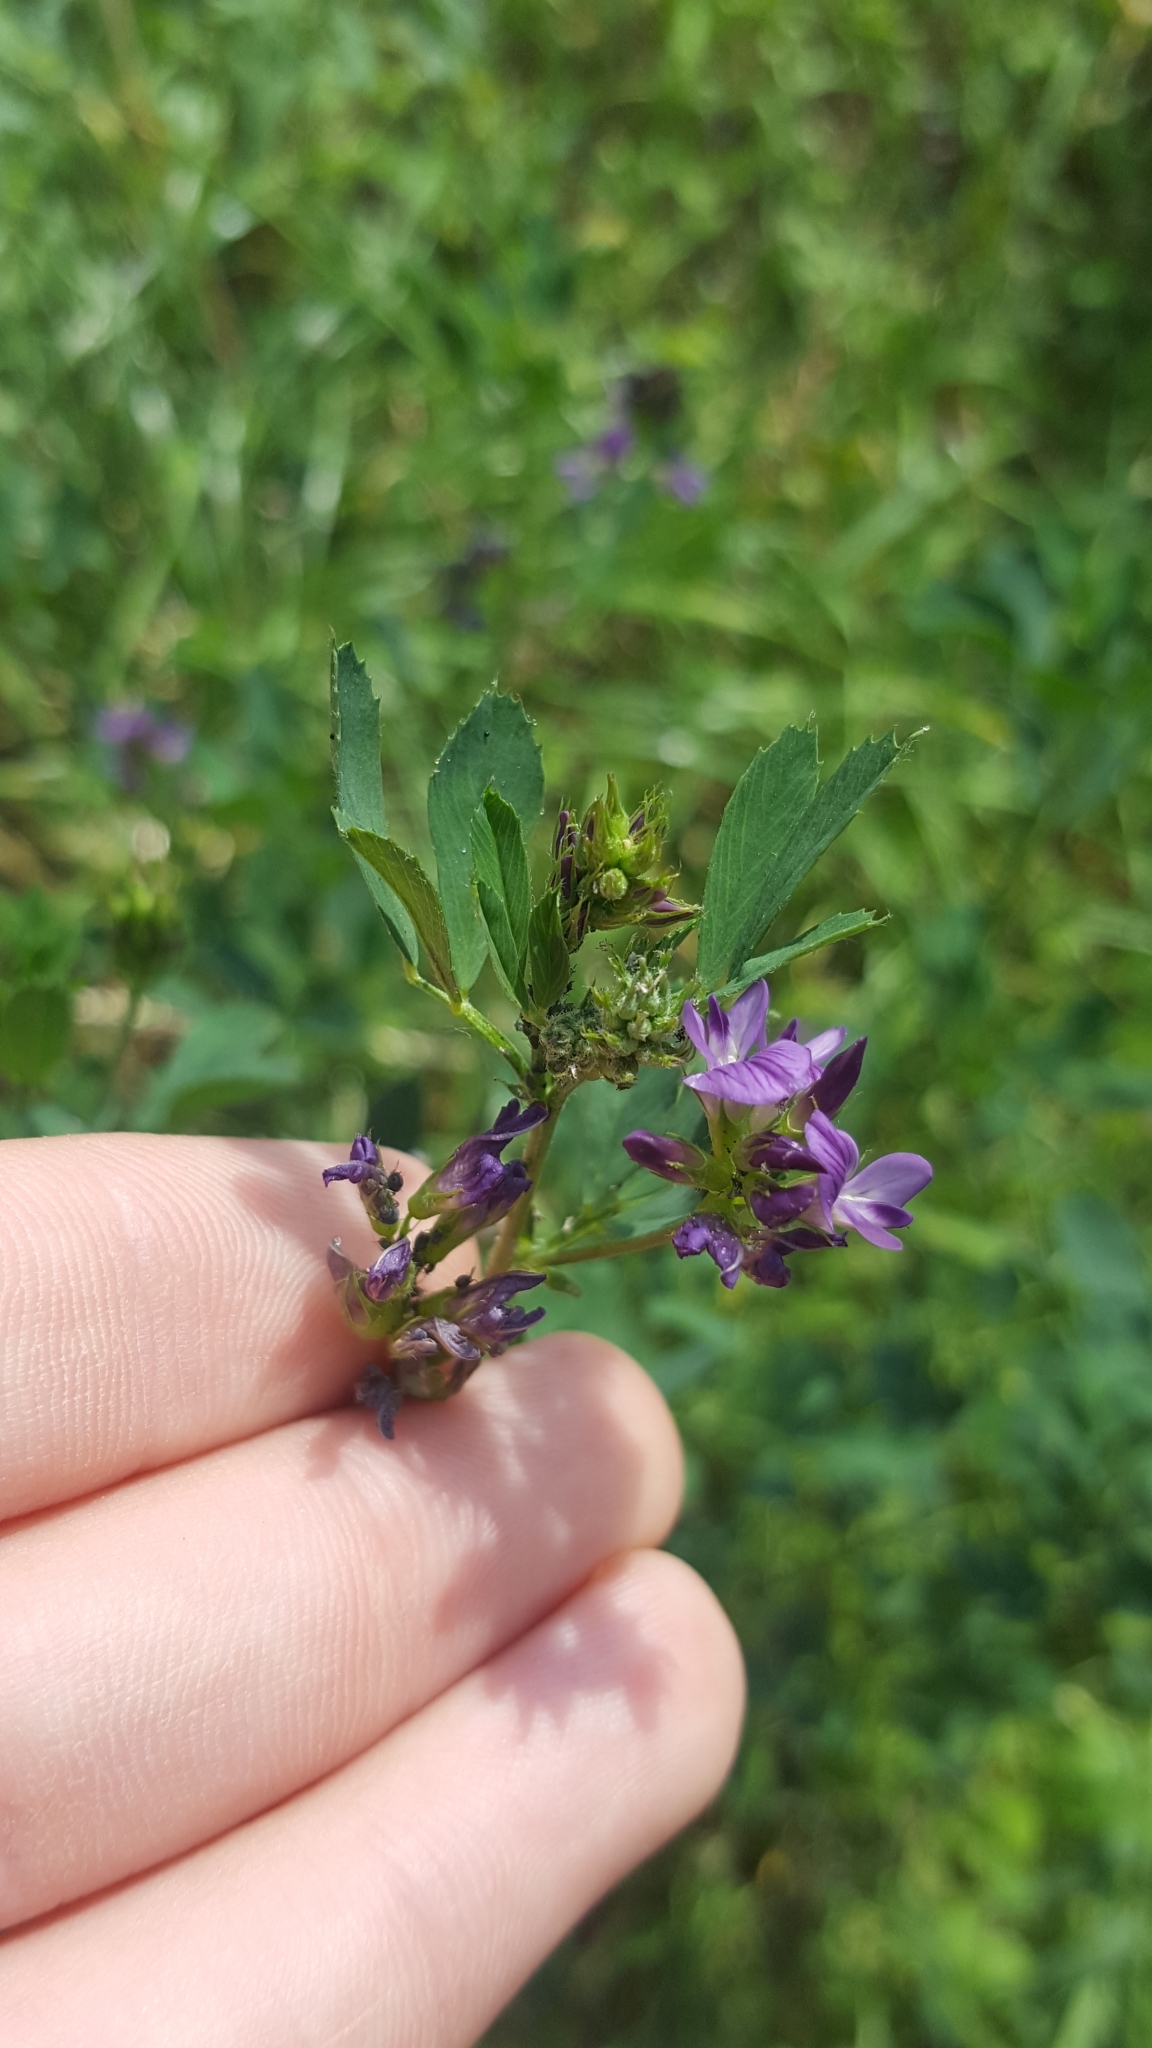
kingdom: Plantae
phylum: Tracheophyta
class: Magnoliopsida
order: Fabales
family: Fabaceae
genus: Medicago
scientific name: Medicago varia
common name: Sand lucerne
